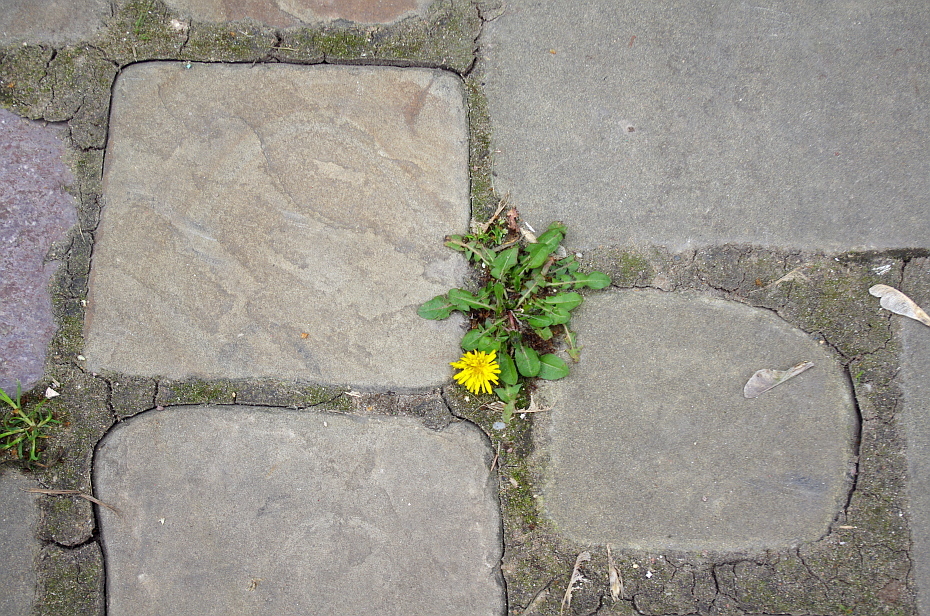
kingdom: Plantae
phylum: Tracheophyta
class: Magnoliopsida
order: Asterales
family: Asteraceae
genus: Taraxacum
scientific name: Taraxacum officinale
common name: Common dandelion
